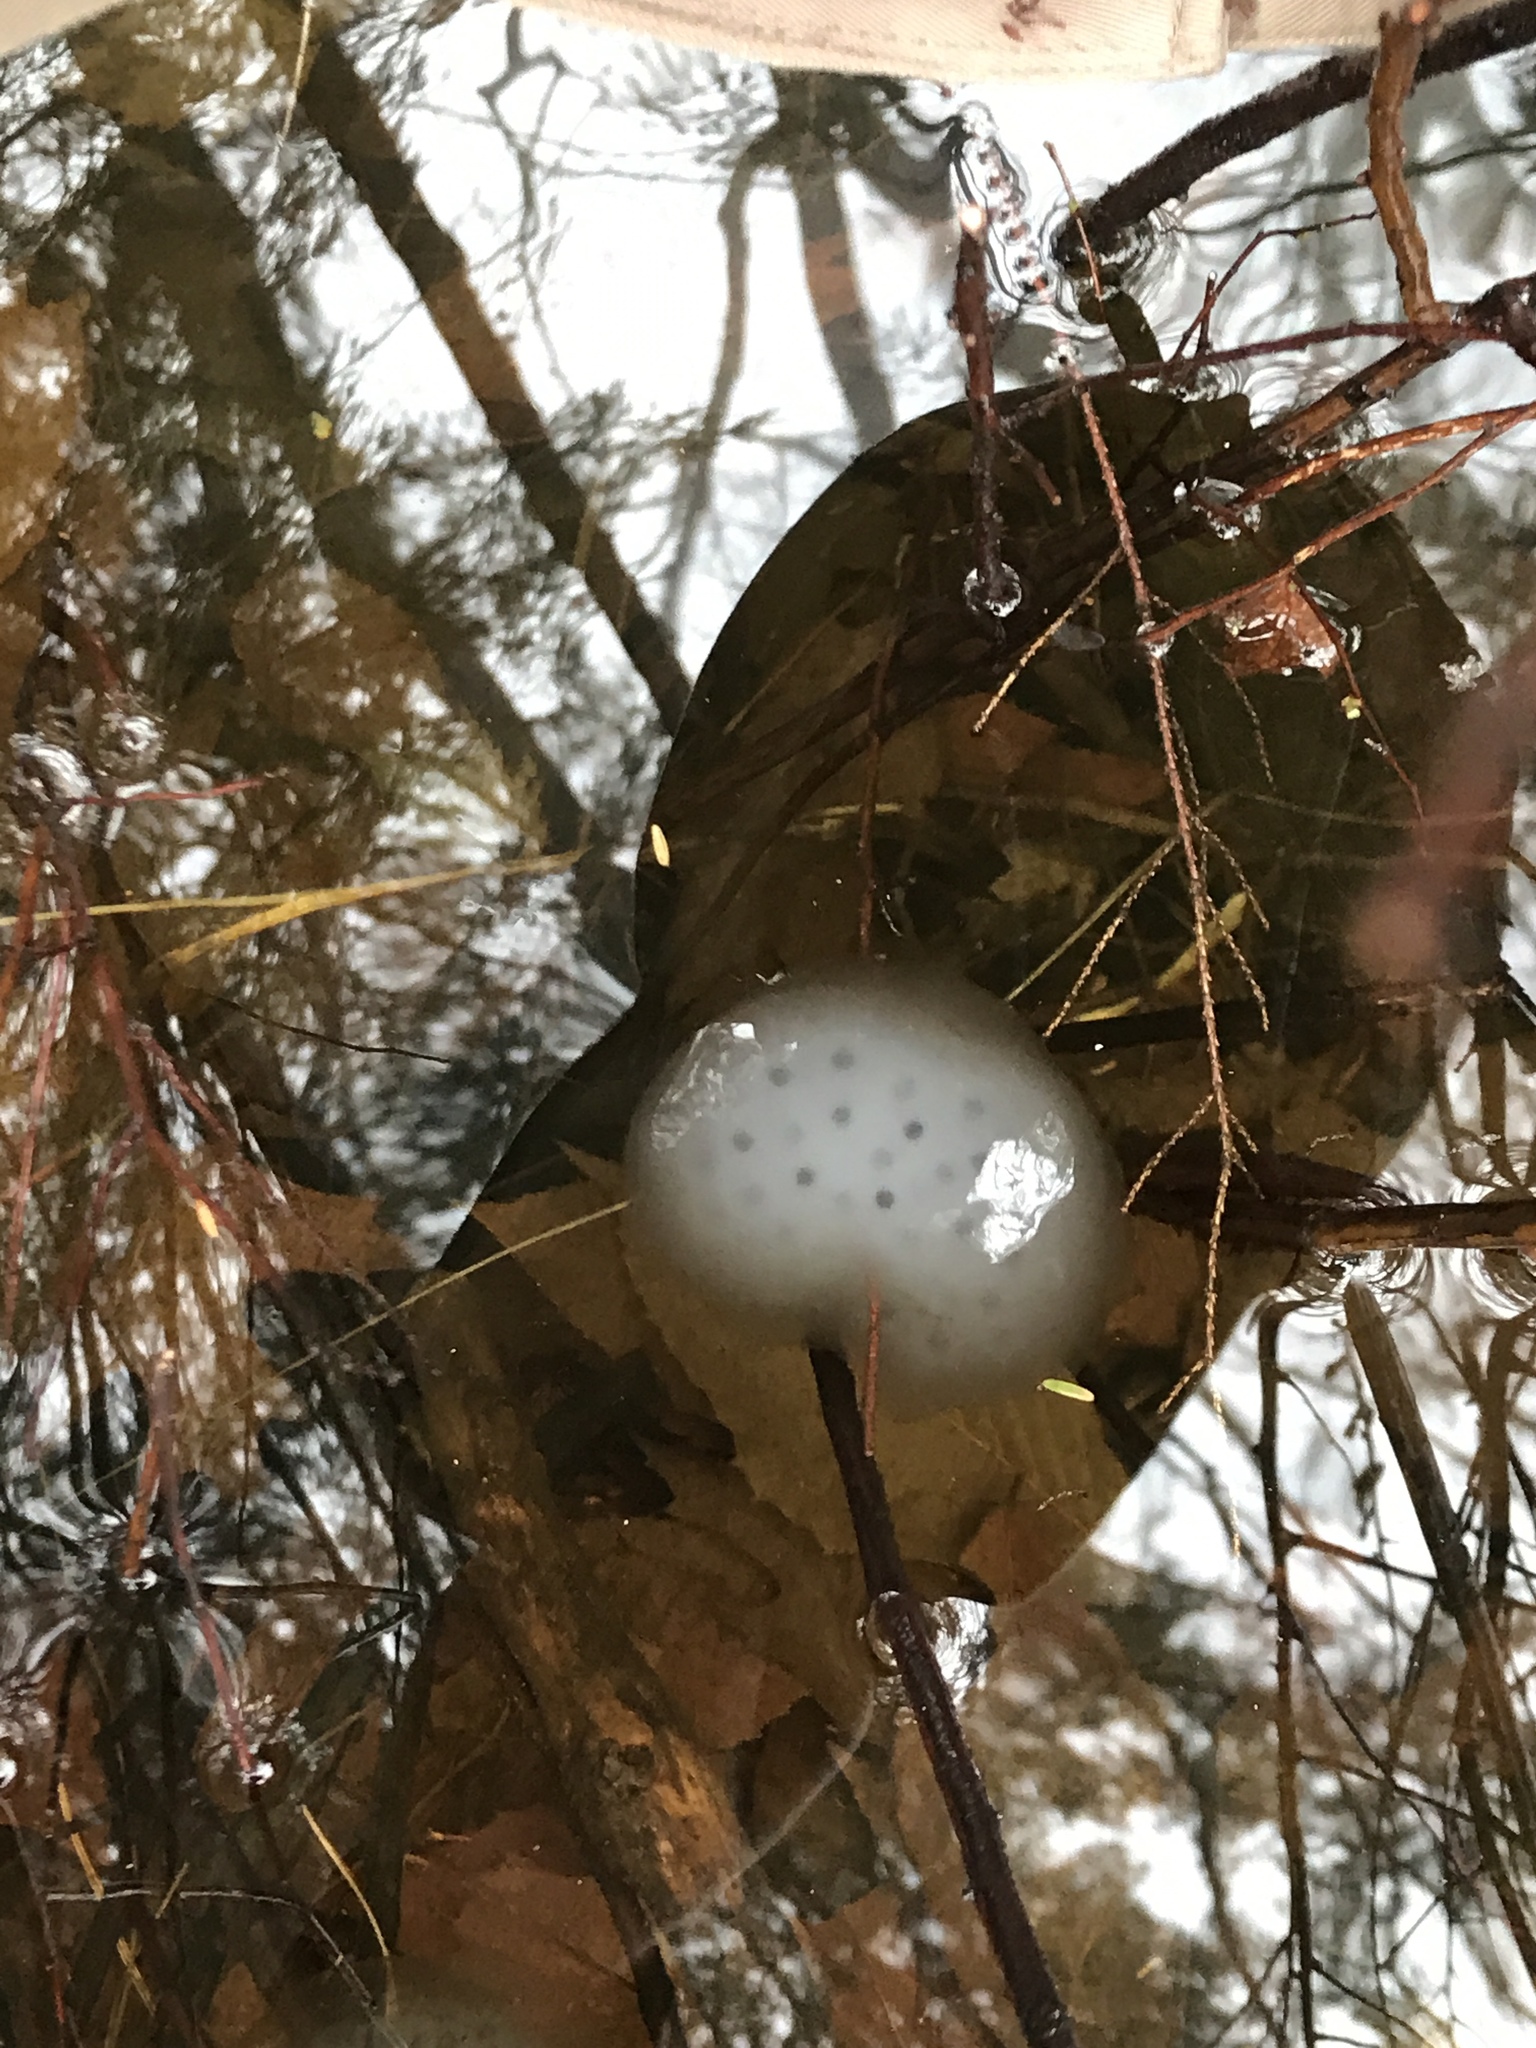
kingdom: Animalia
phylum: Chordata
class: Amphibia
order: Caudata
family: Ambystomatidae
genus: Ambystoma
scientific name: Ambystoma maculatum
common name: Spotted salamander
